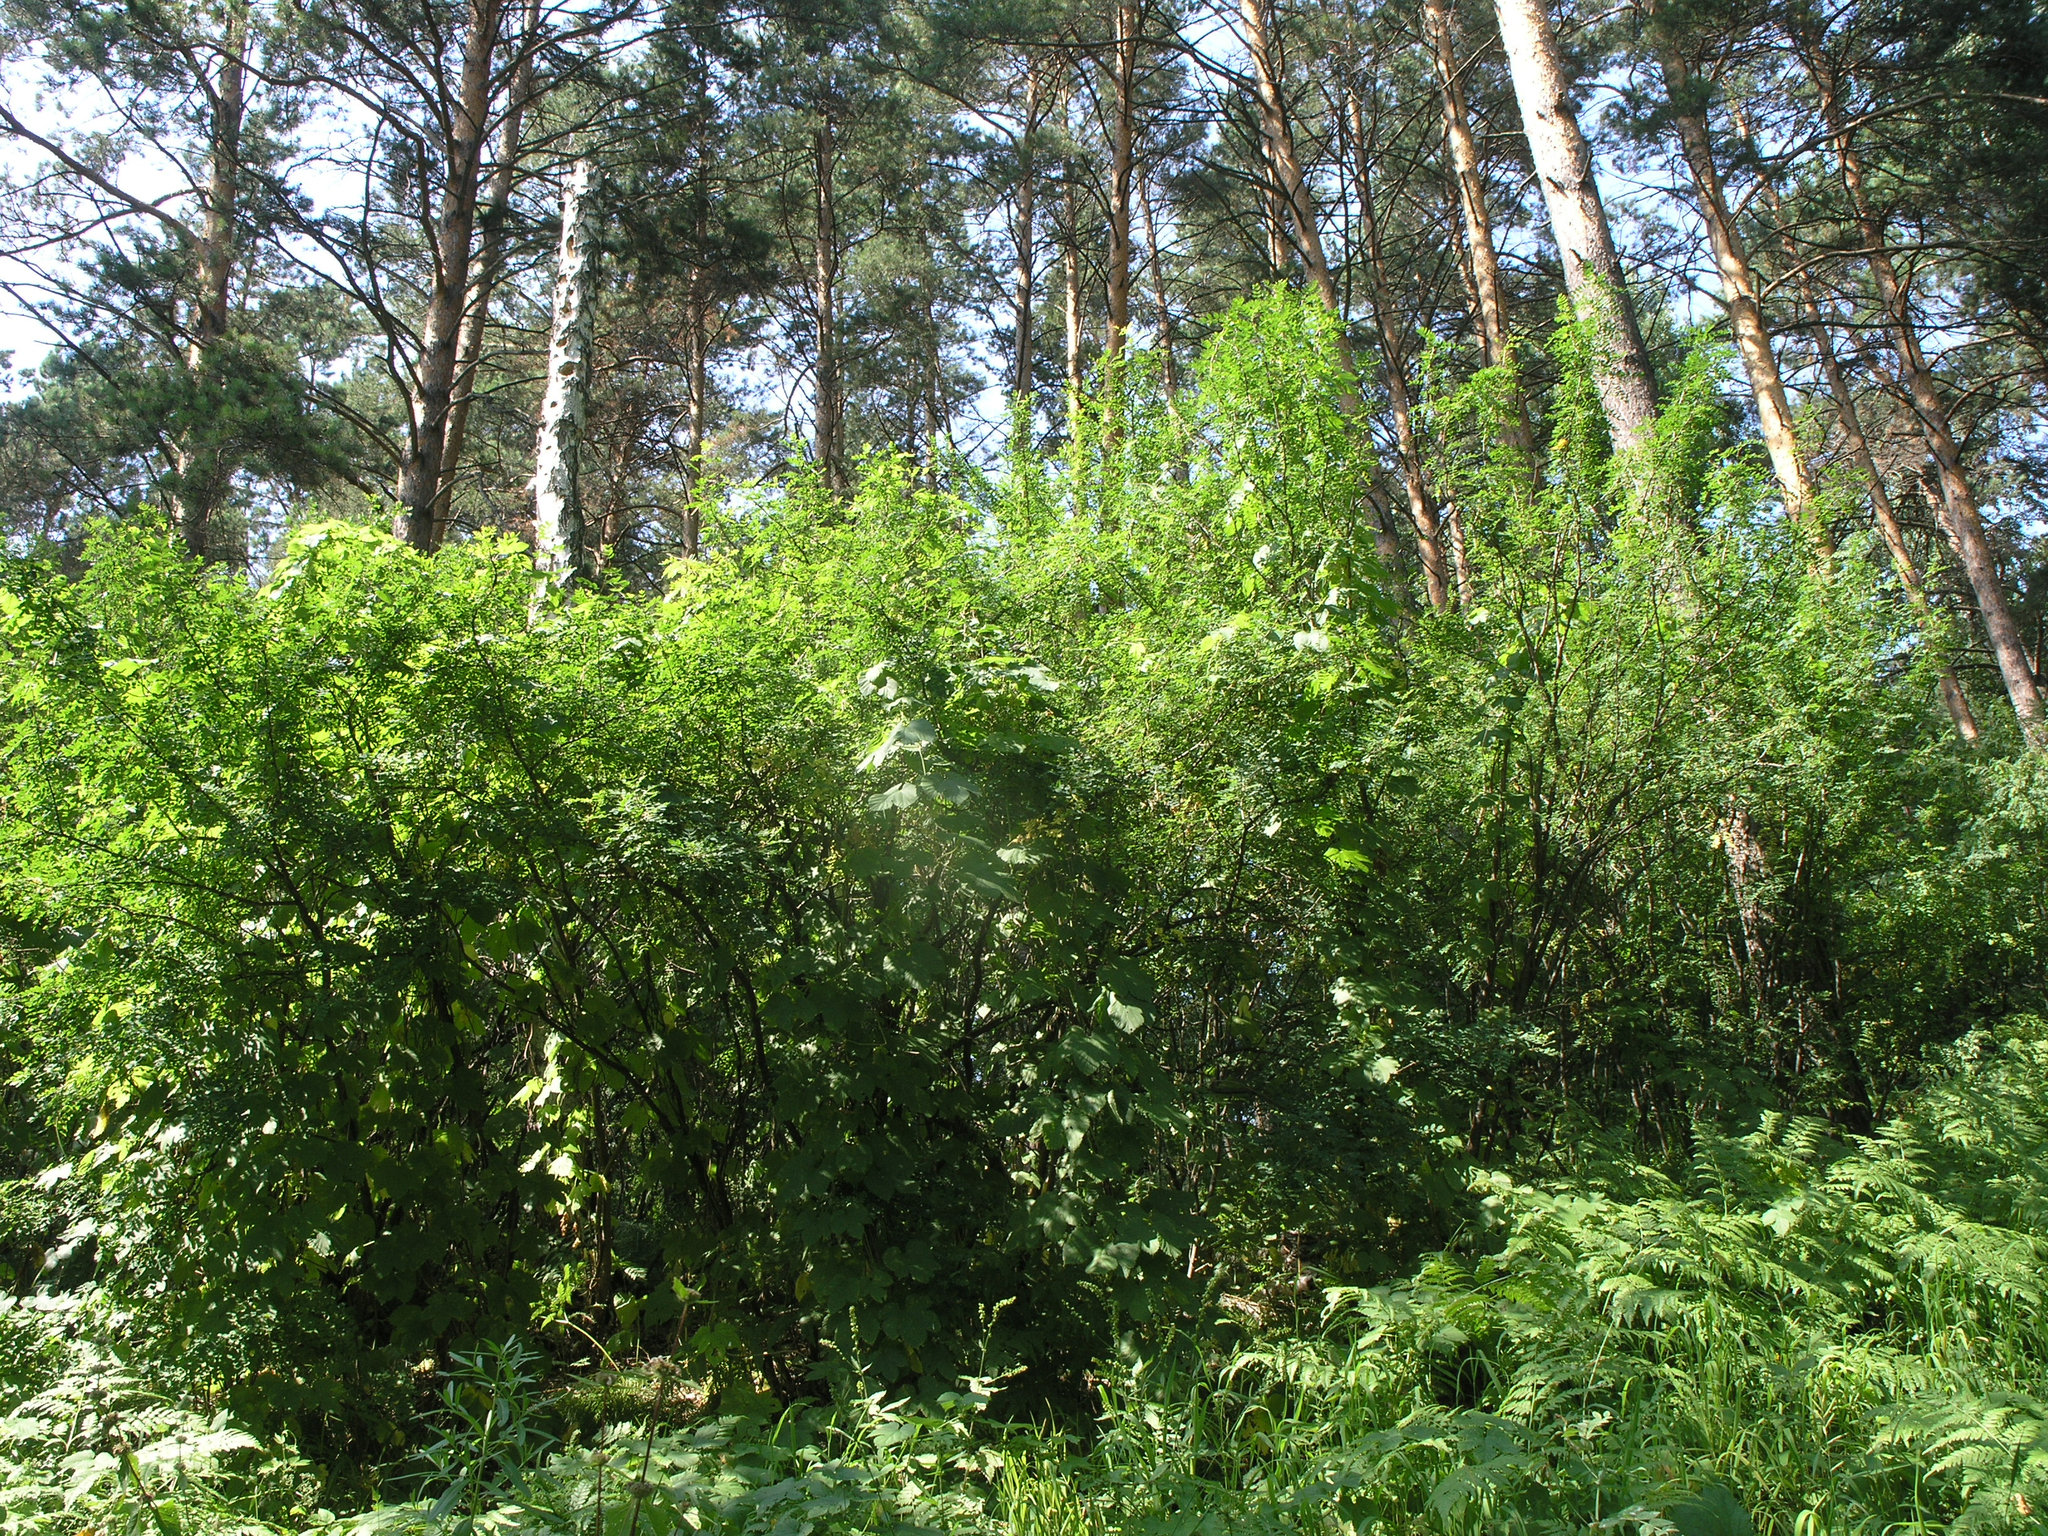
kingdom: Plantae
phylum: Tracheophyta
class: Magnoliopsida
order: Fabales
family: Fabaceae
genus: Caragana
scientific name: Caragana arborescens
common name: Siberian peashrub
